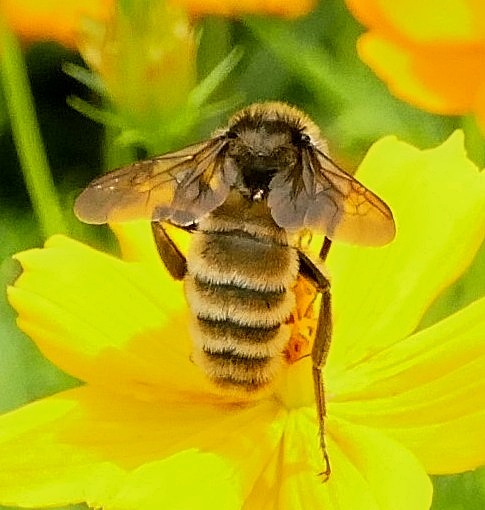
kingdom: Animalia
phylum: Arthropoda
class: Insecta
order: Hymenoptera
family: Apidae
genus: Bombus
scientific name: Bombus pensylvanicus
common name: Bumble bee
